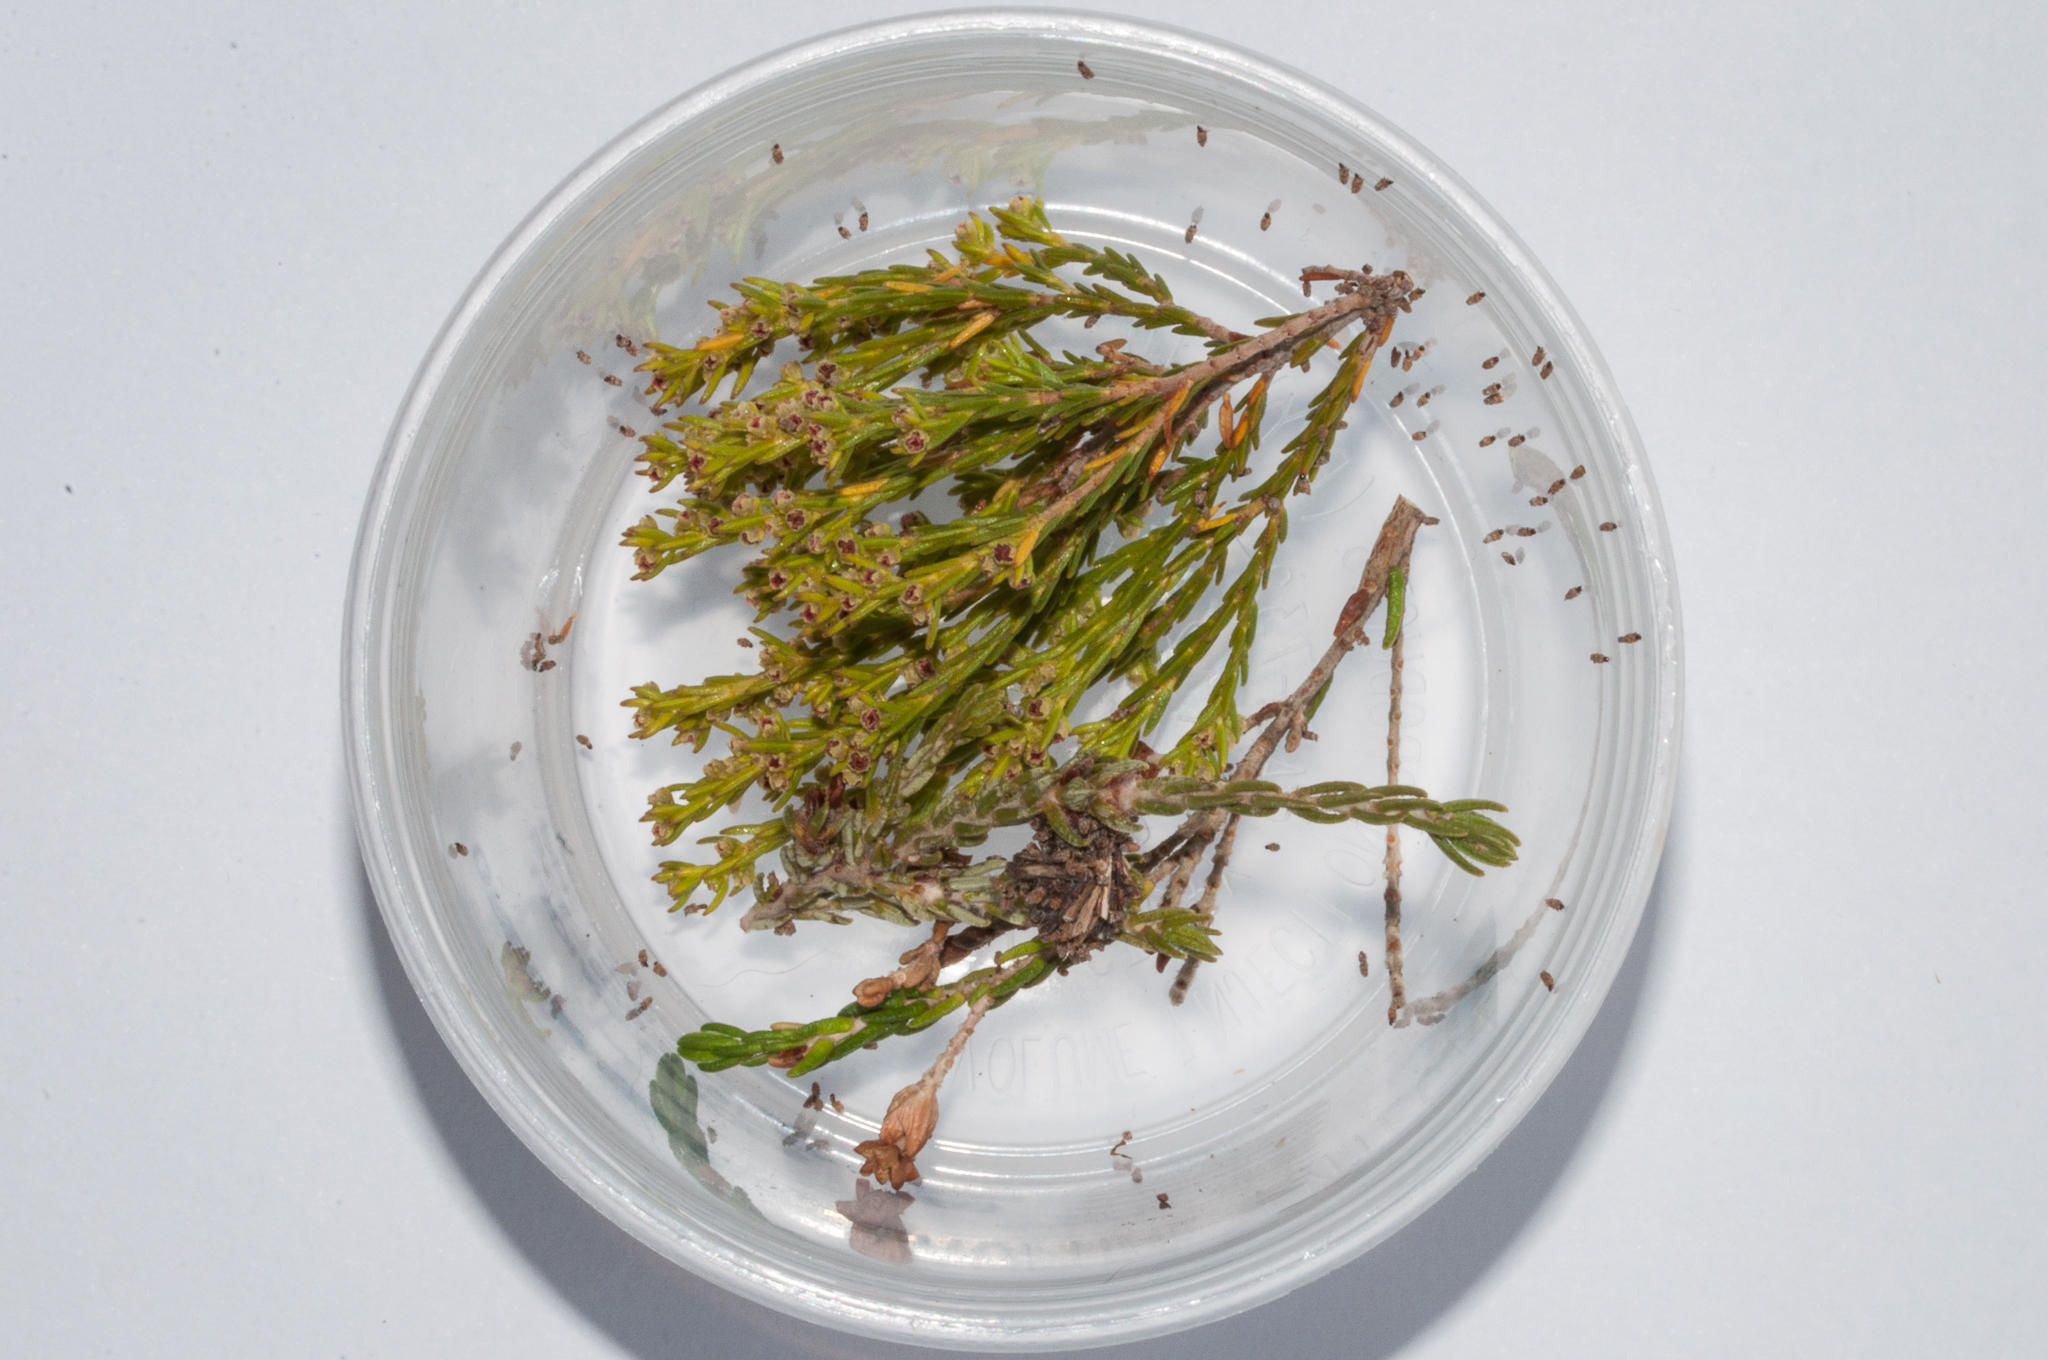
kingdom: Animalia
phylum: Arthropoda
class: Insecta
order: Lepidoptera
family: Psychidae
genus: Typhonia
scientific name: Typhonia picea
